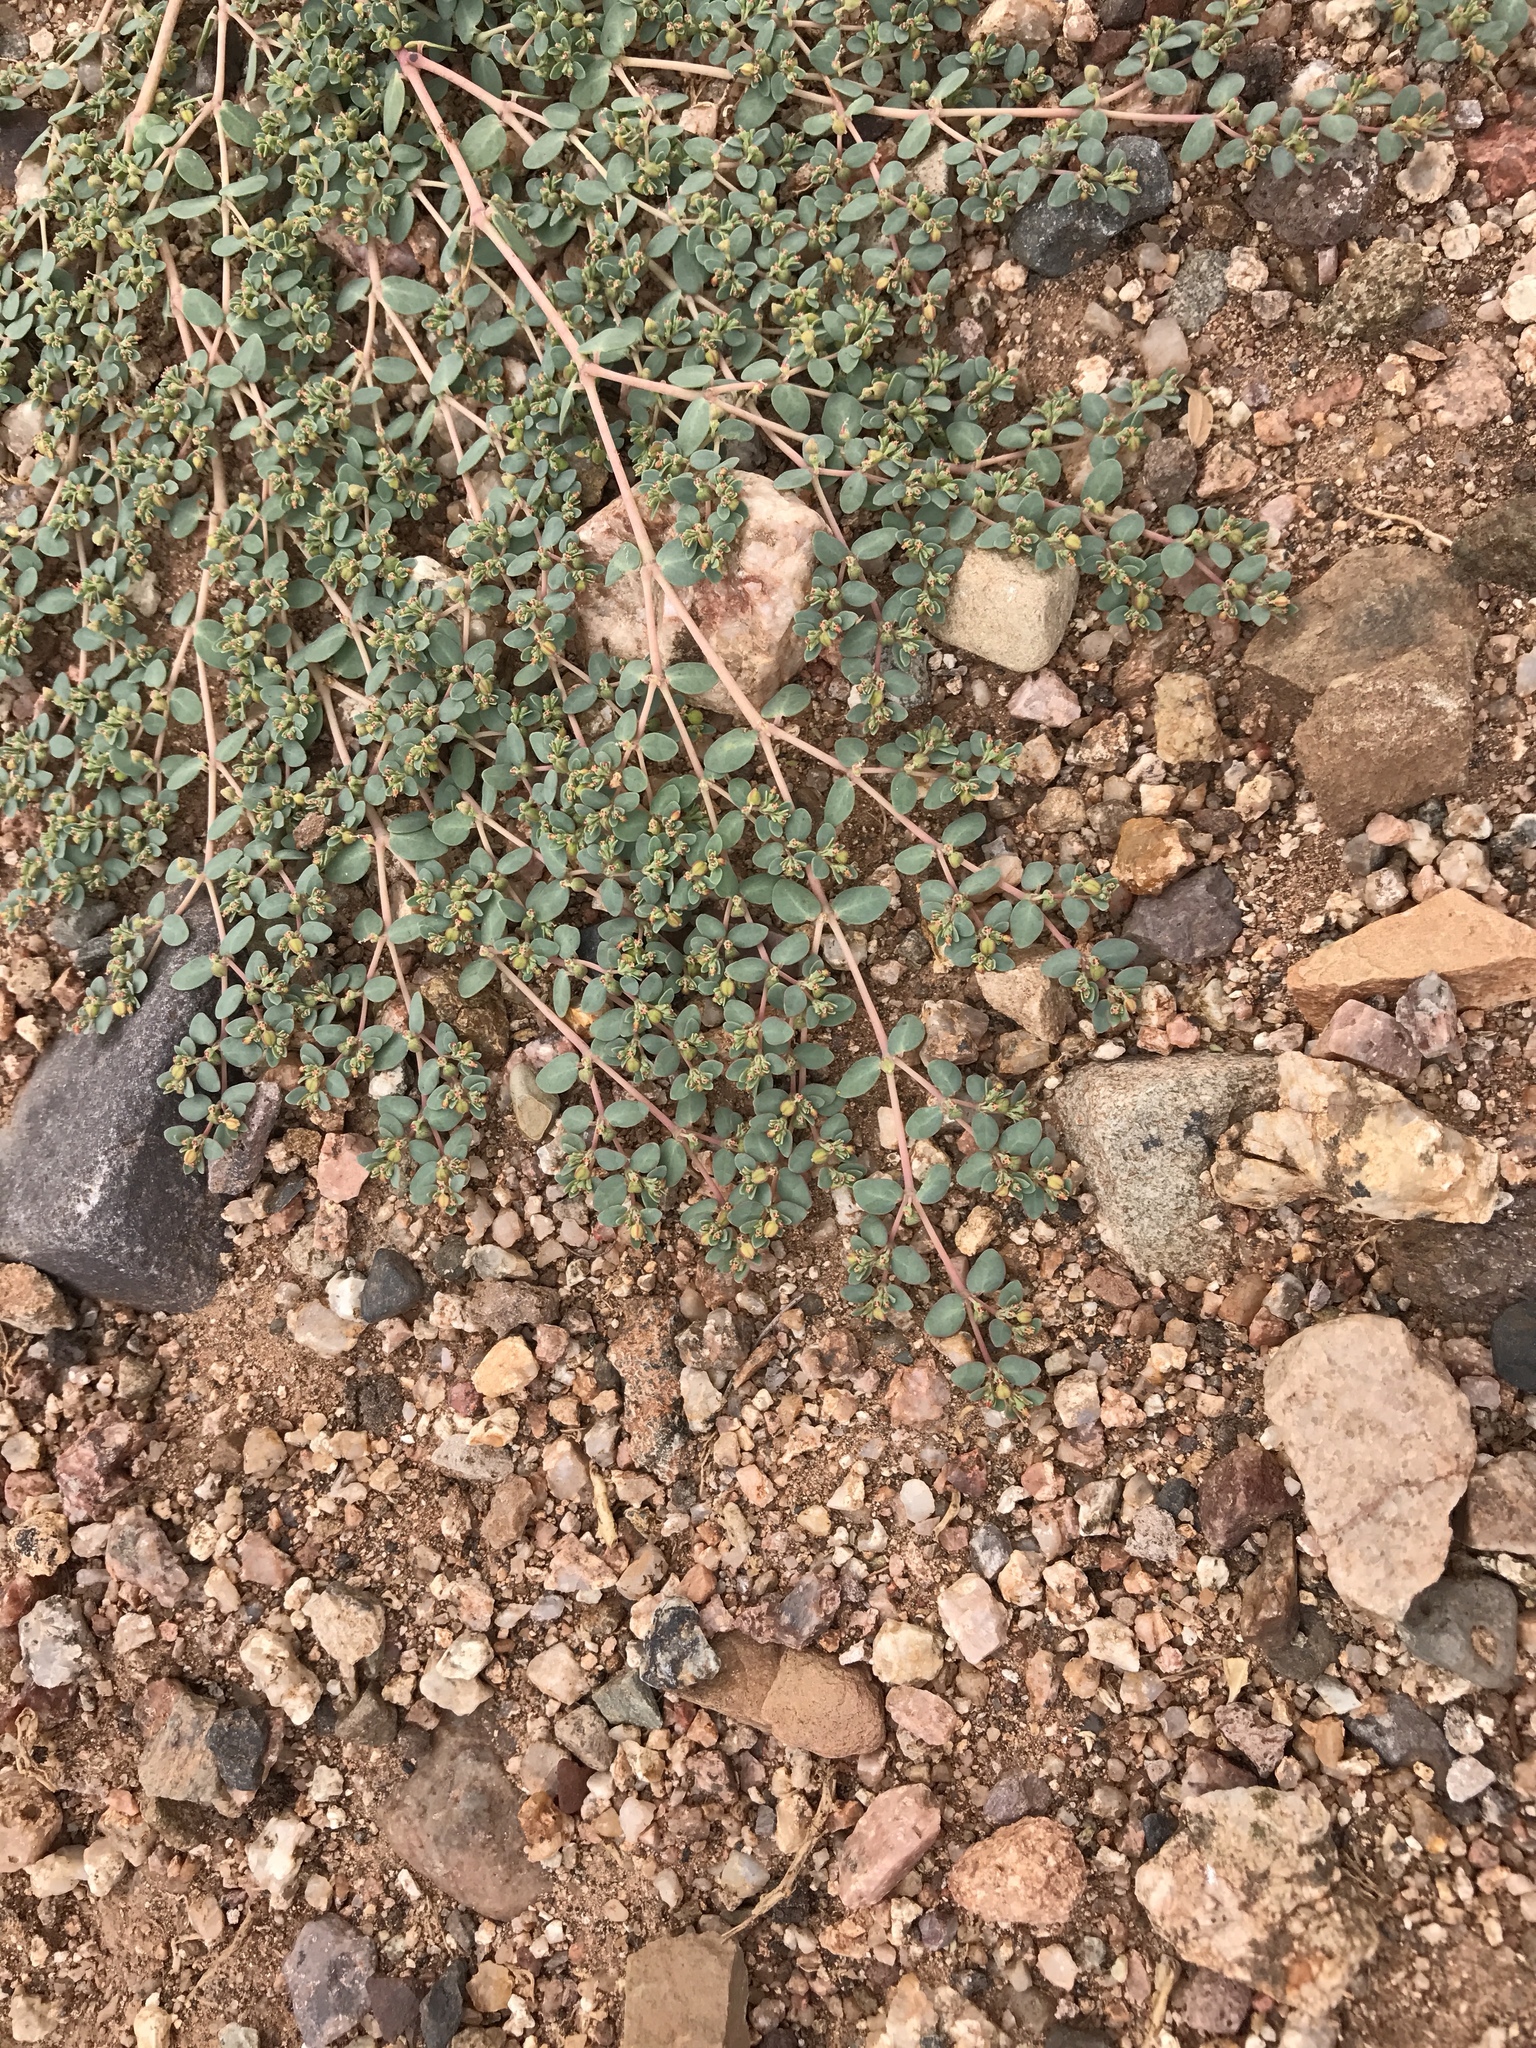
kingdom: Plantae
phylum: Tracheophyta
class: Magnoliopsida
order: Malpighiales
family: Euphorbiaceae
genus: Euphorbia
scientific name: Euphorbia micromera
